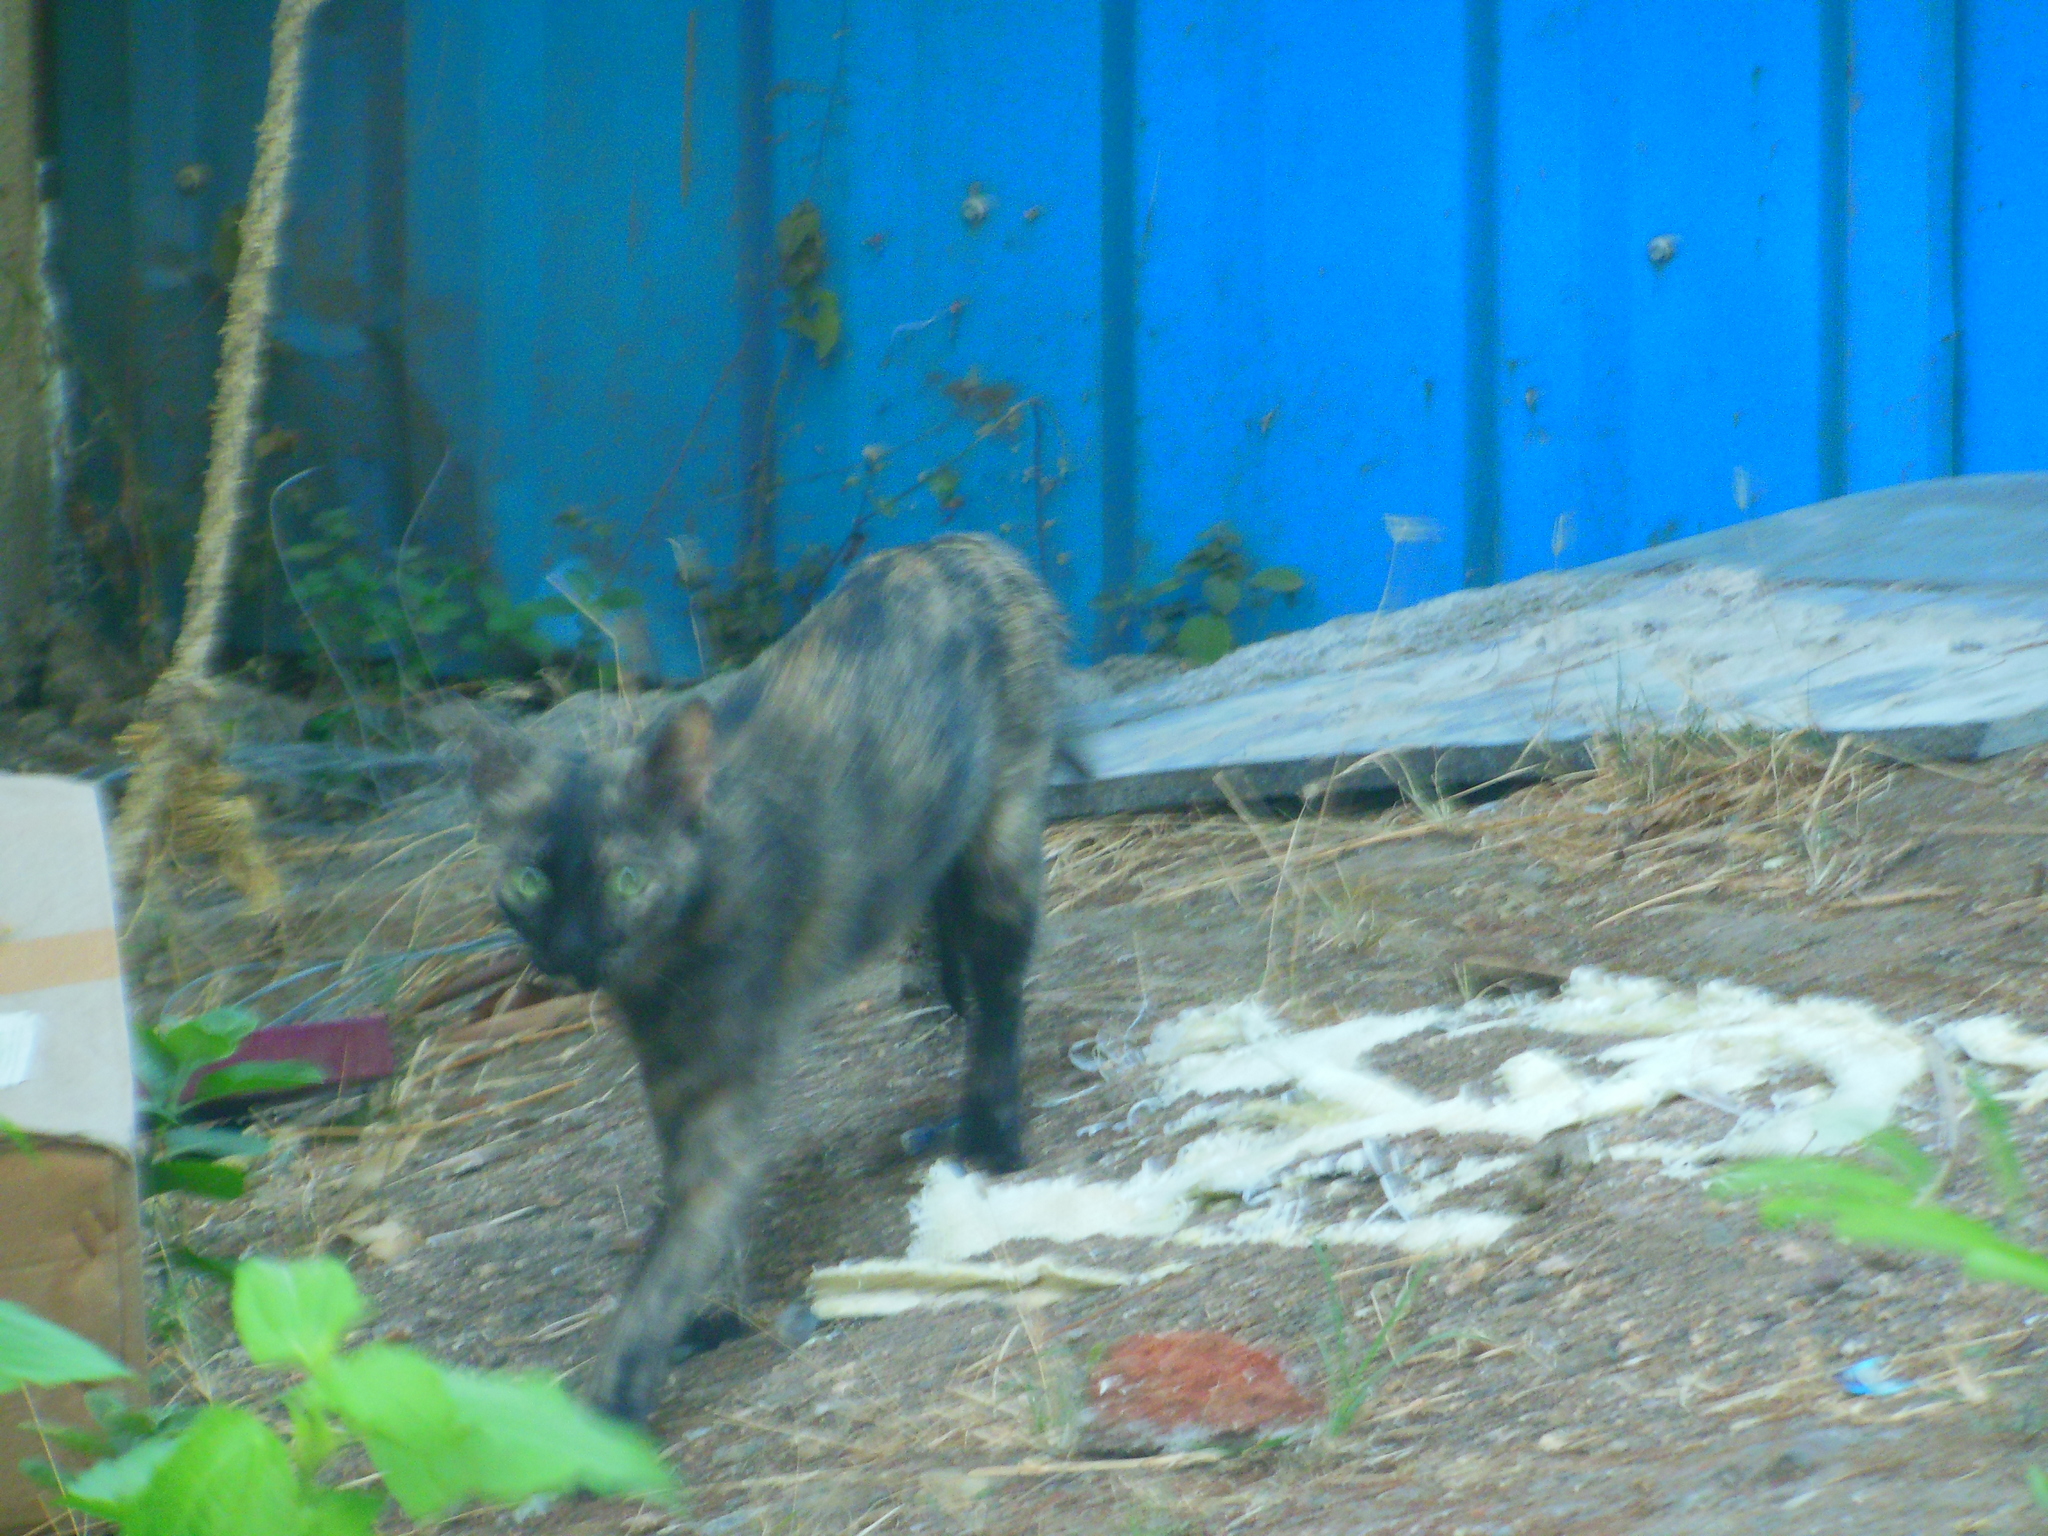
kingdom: Animalia
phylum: Chordata
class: Mammalia
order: Carnivora
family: Felidae
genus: Felis
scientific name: Felis catus
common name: Domestic cat
